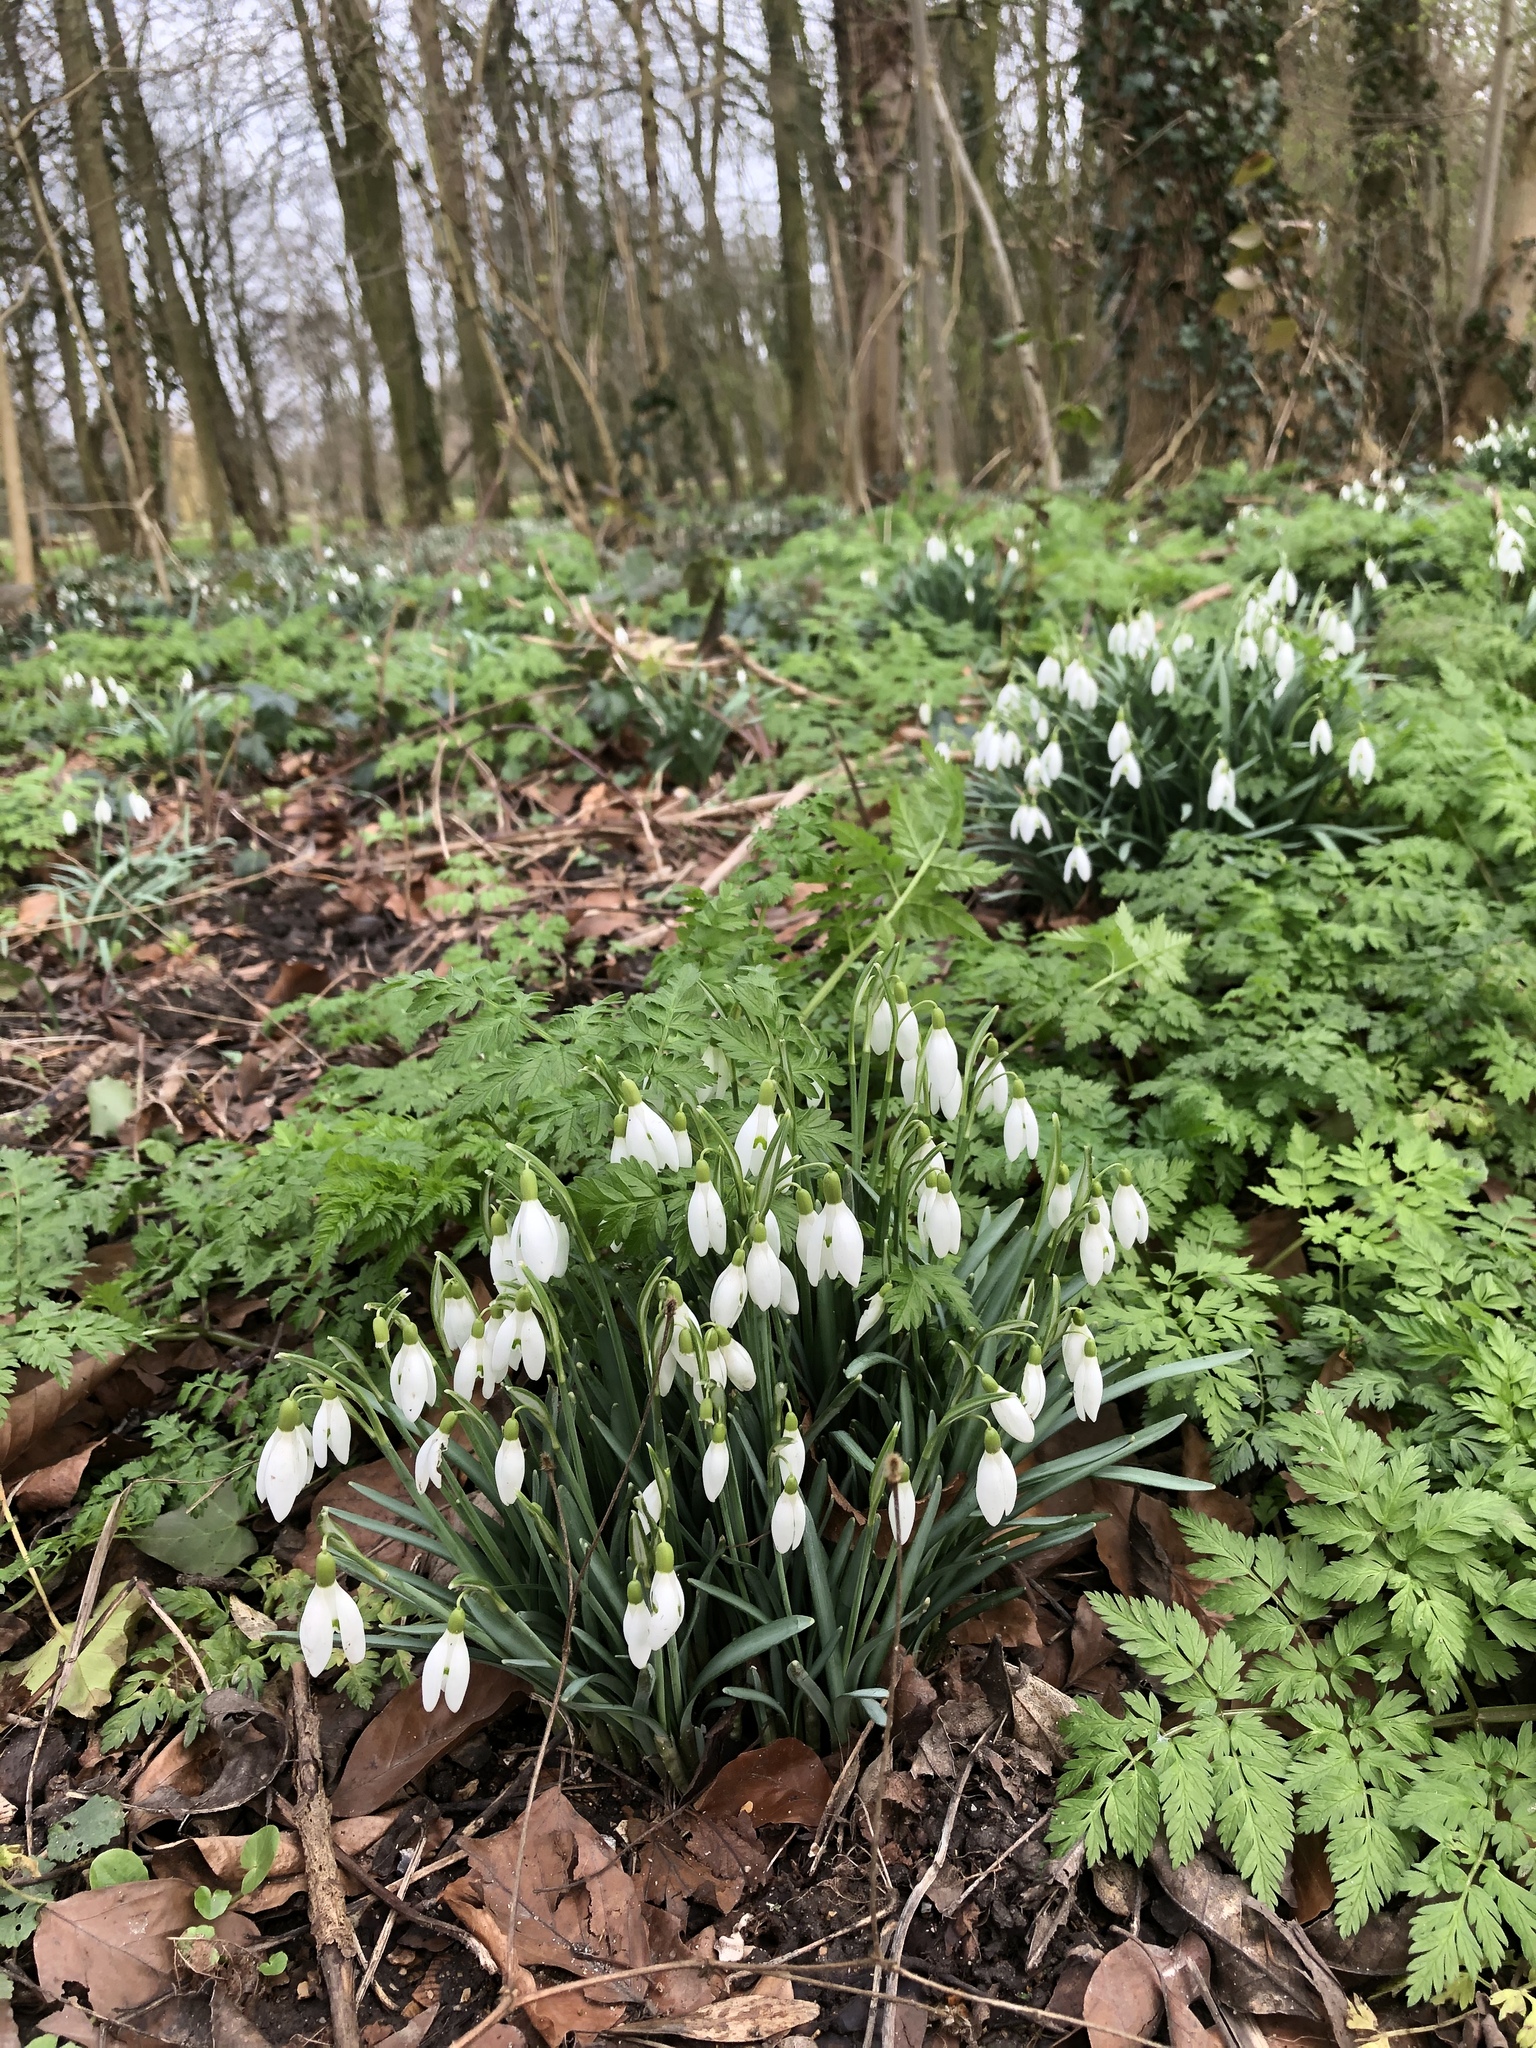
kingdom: Plantae
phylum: Tracheophyta
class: Liliopsida
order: Asparagales
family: Amaryllidaceae
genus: Galanthus
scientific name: Galanthus nivalis
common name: Snowdrop
